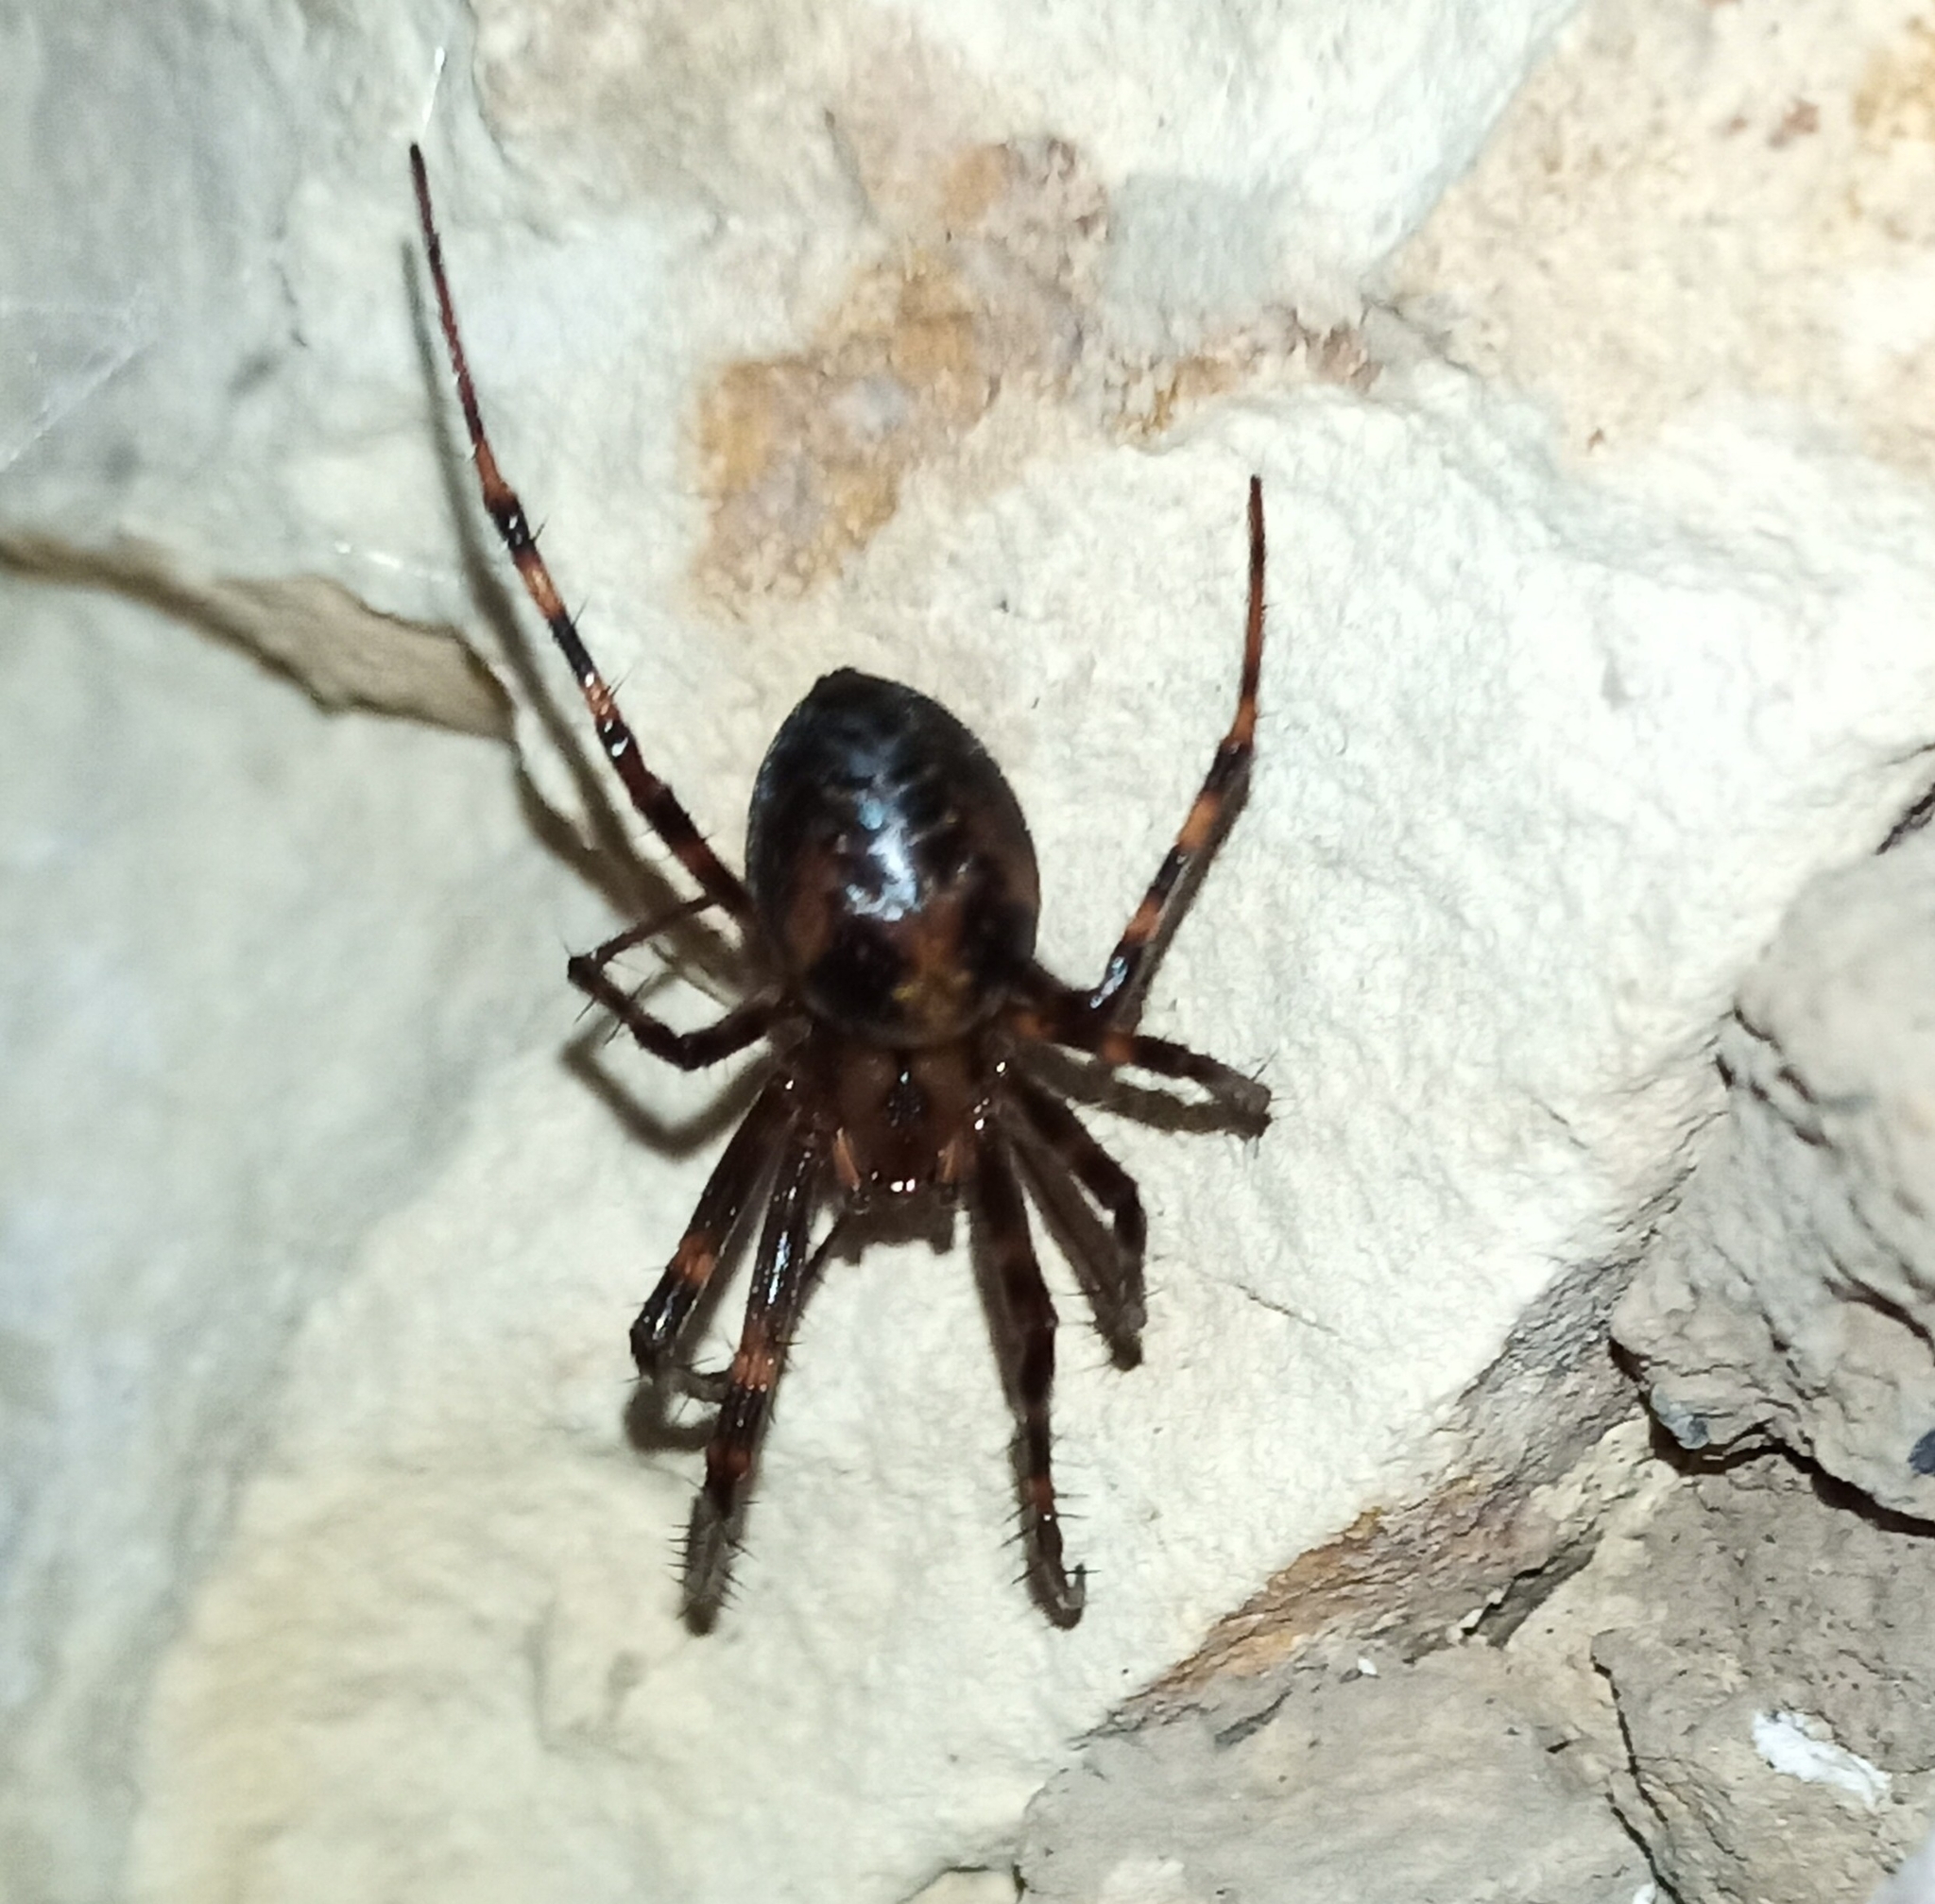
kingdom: Animalia
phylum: Arthropoda
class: Arachnida
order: Araneae
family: Tetragnathidae
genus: Meta
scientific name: Meta menardi
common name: Cave spider
